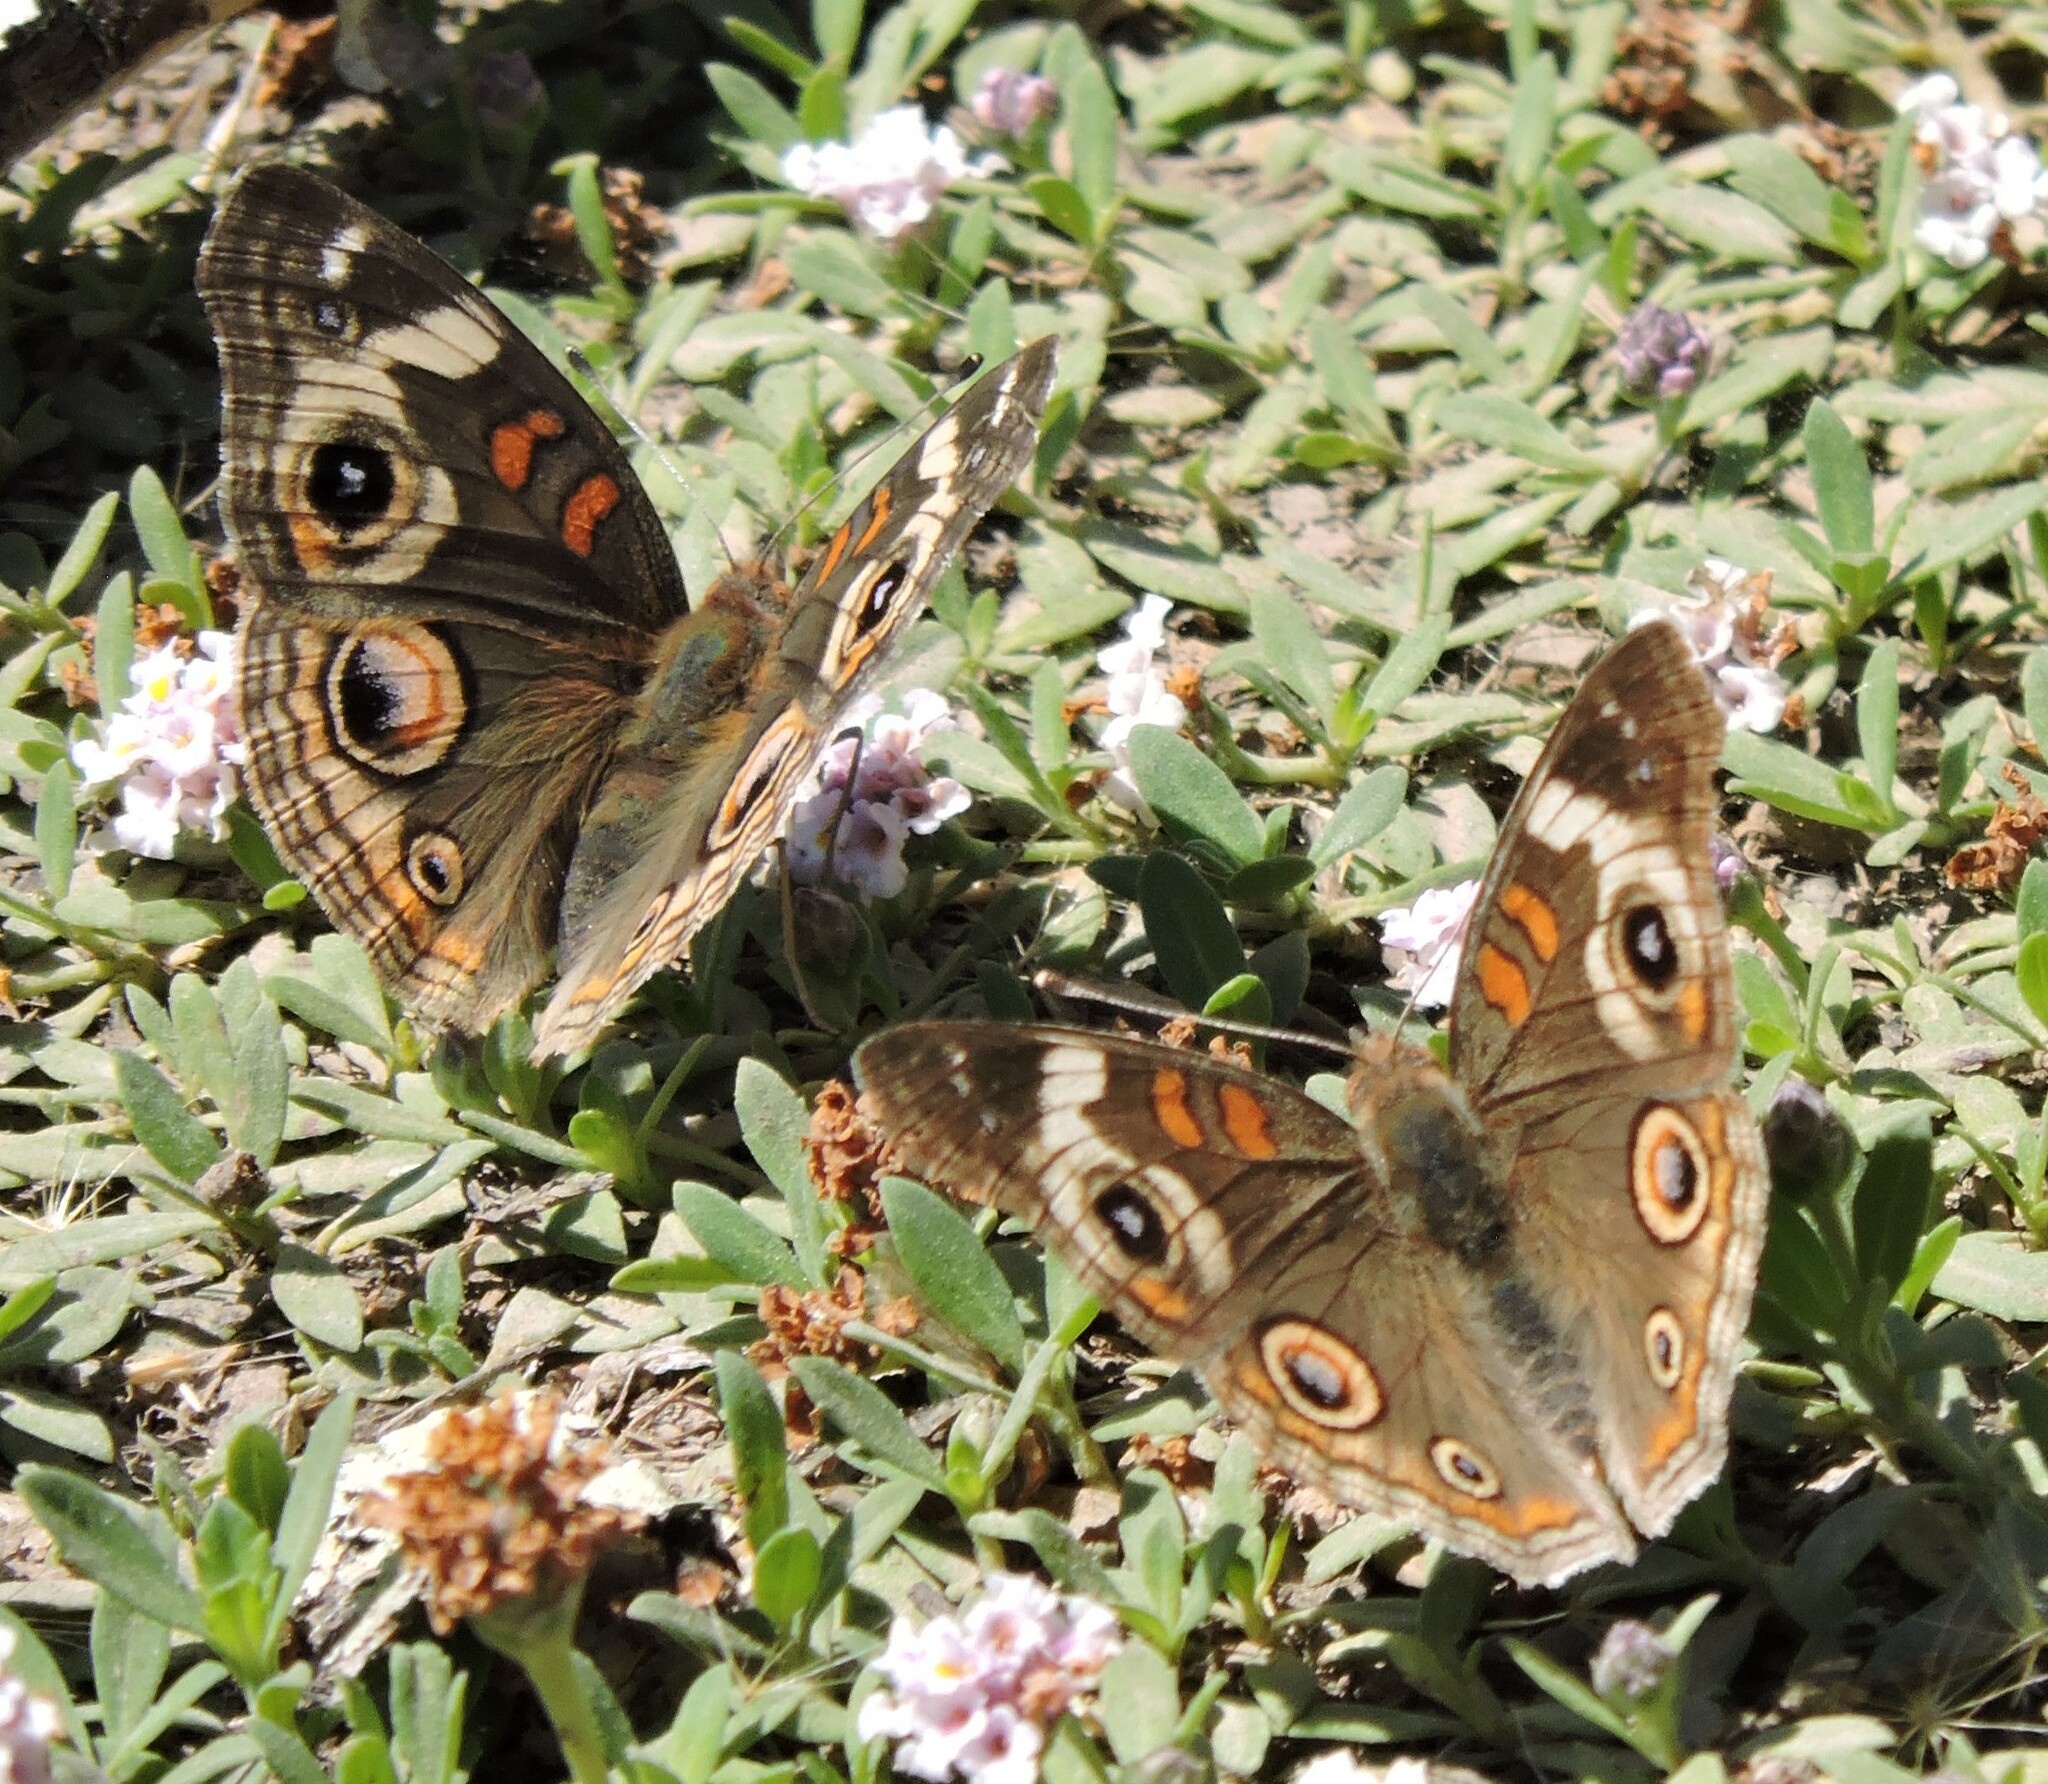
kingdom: Animalia
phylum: Arthropoda
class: Insecta
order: Lepidoptera
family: Nymphalidae
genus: Junonia
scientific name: Junonia grisea
